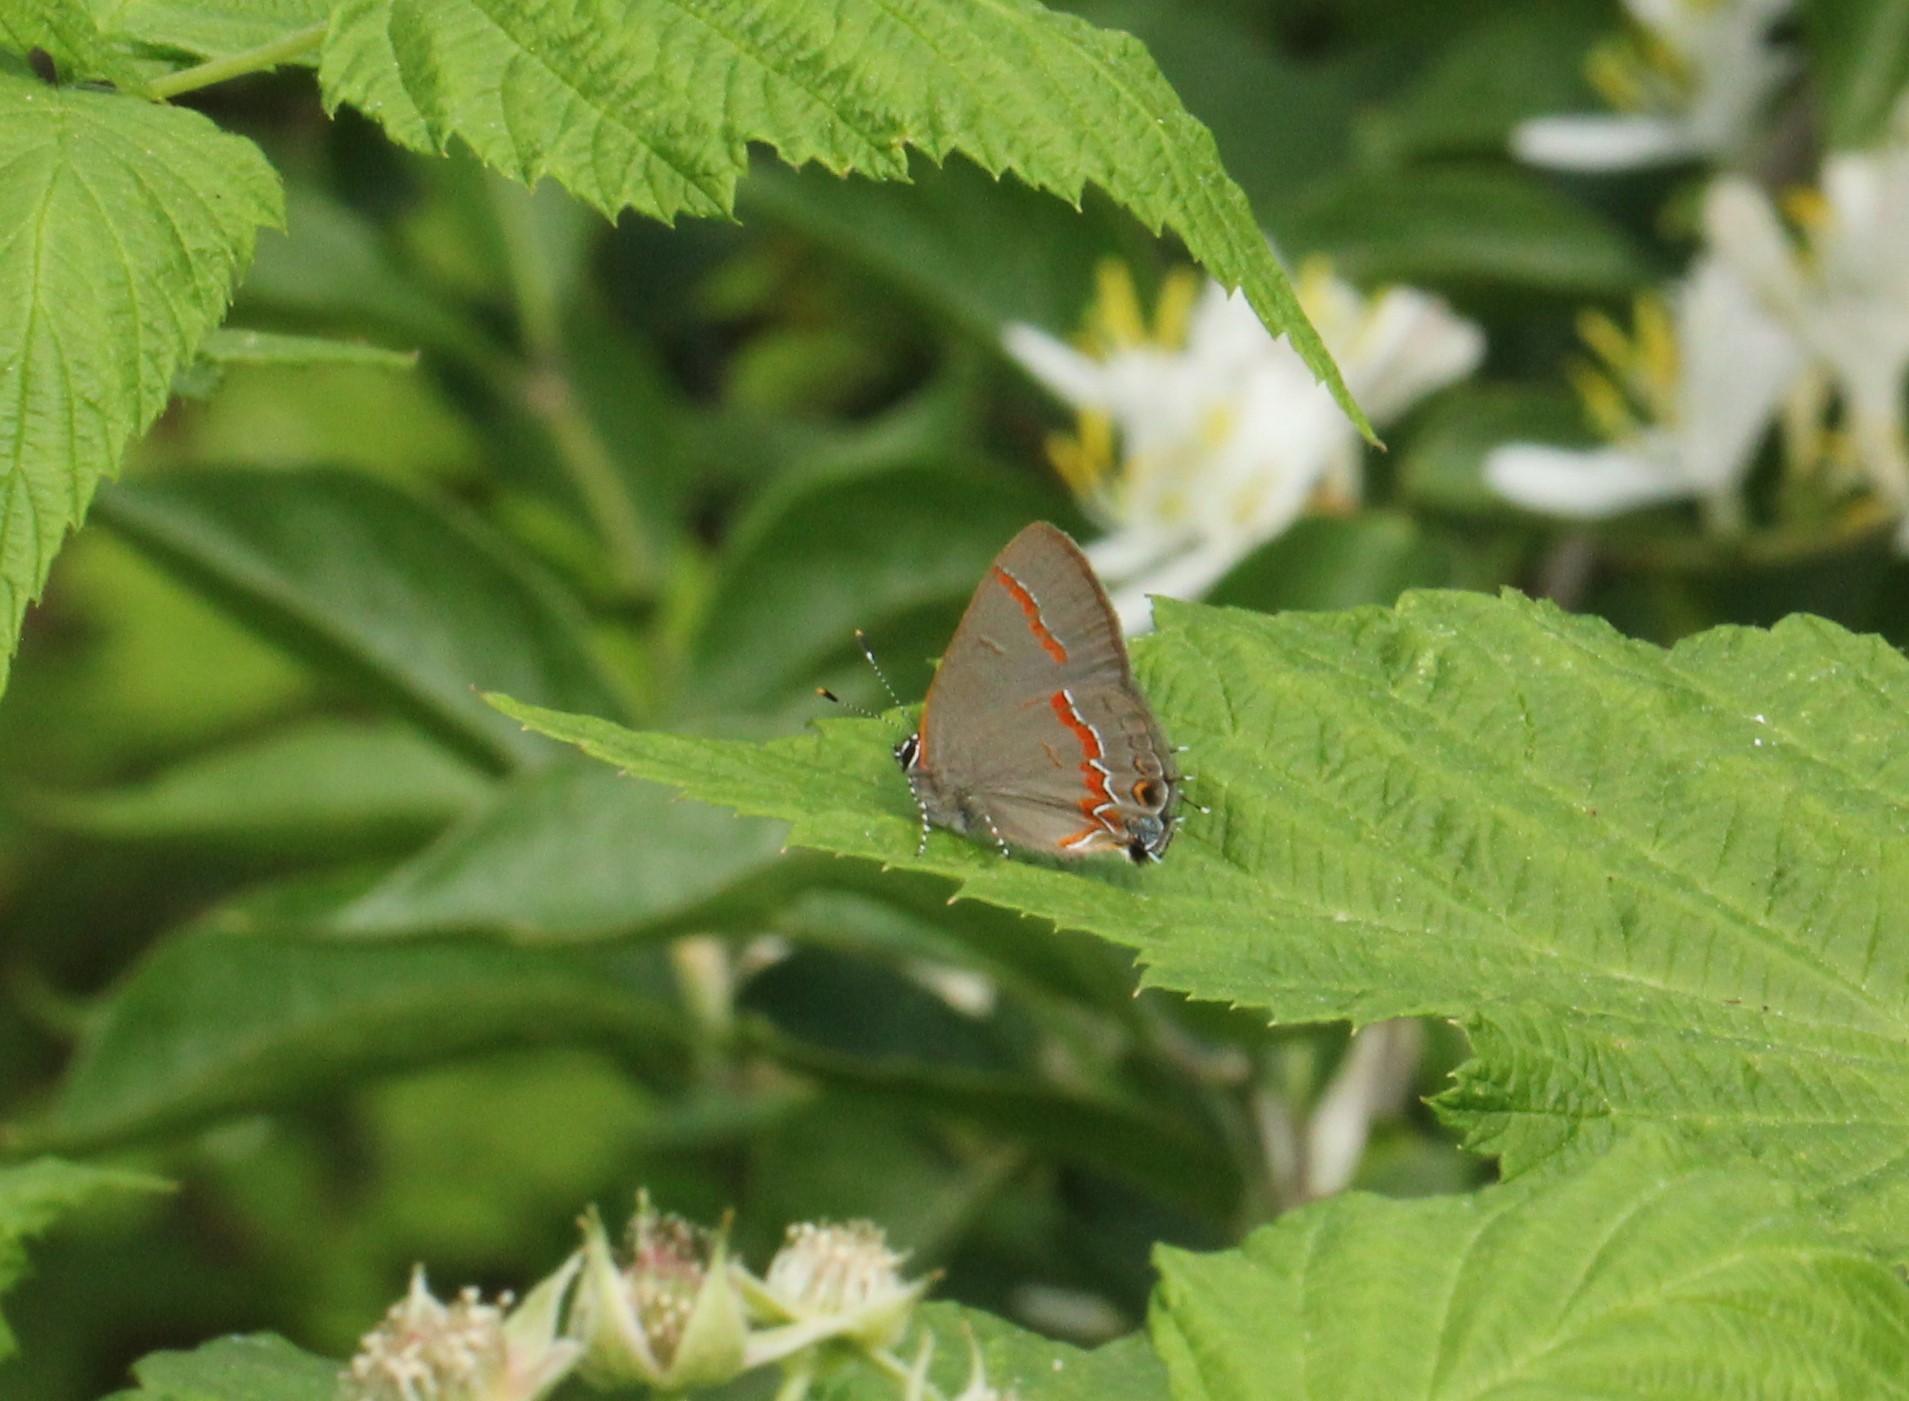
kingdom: Animalia
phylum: Arthropoda
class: Insecta
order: Lepidoptera
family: Lycaenidae
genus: Calycopis
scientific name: Calycopis cecrops
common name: Red-banded hairstreak
